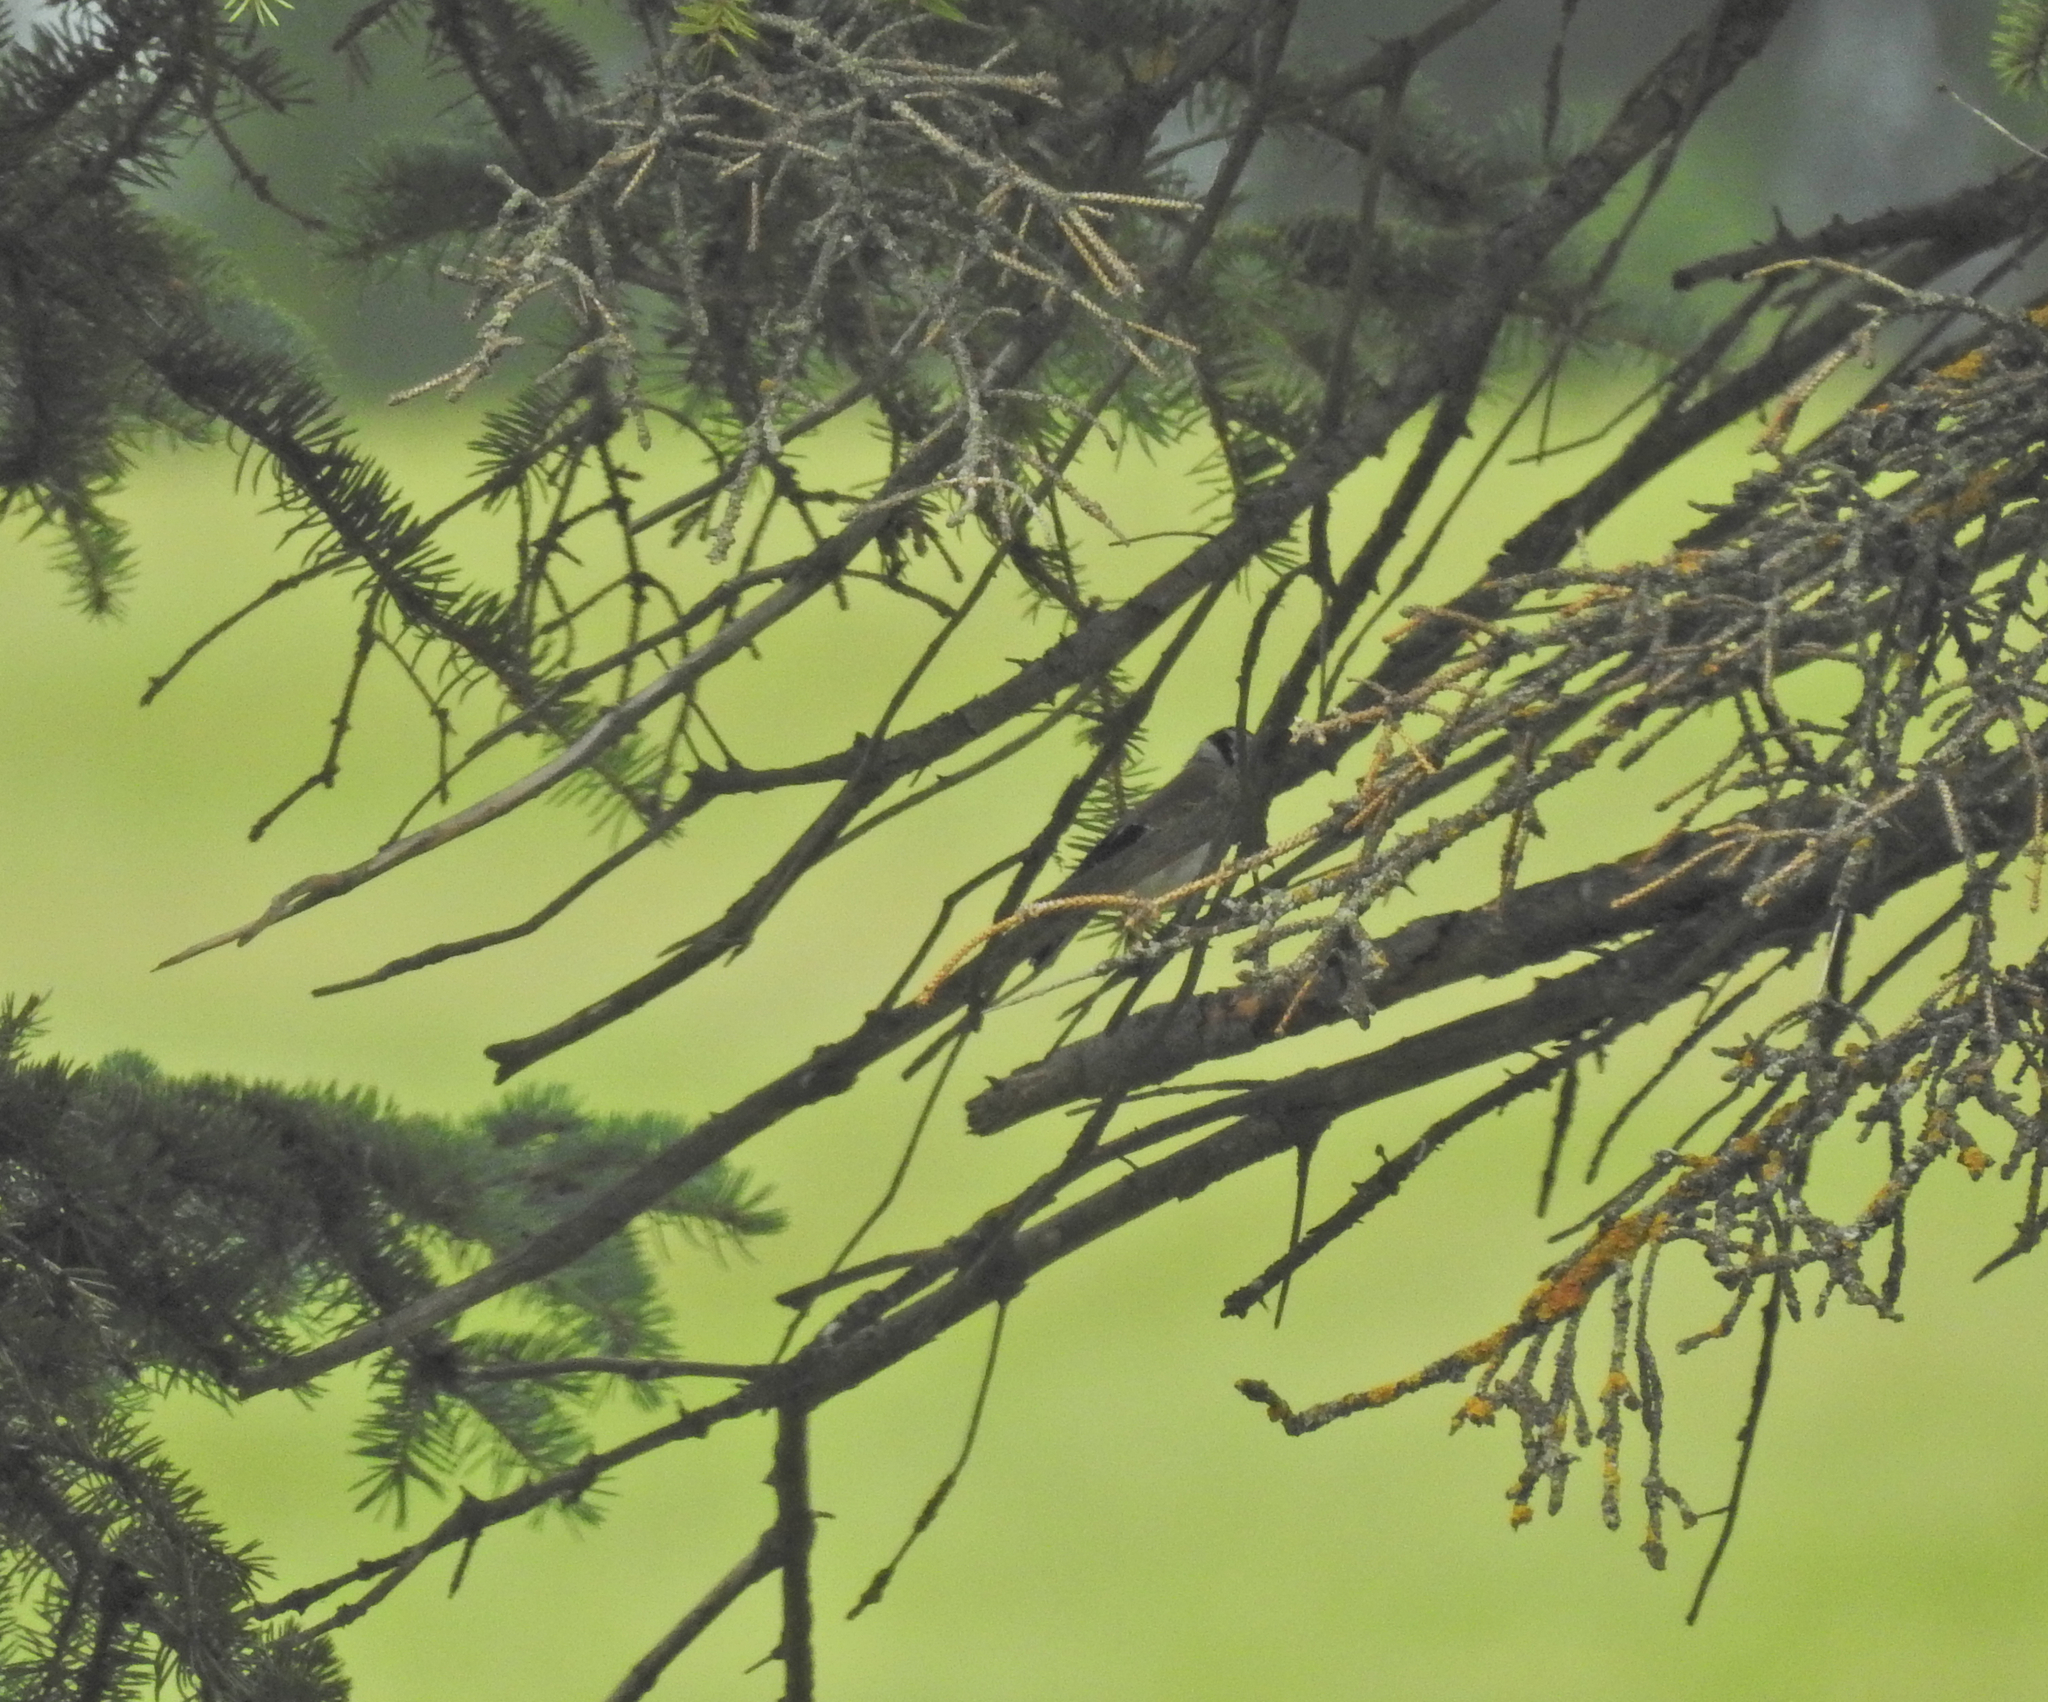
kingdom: Animalia
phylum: Chordata
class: Aves
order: Passeriformes
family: Fringillidae
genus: Carduelis
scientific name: Carduelis carduelis
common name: European goldfinch
